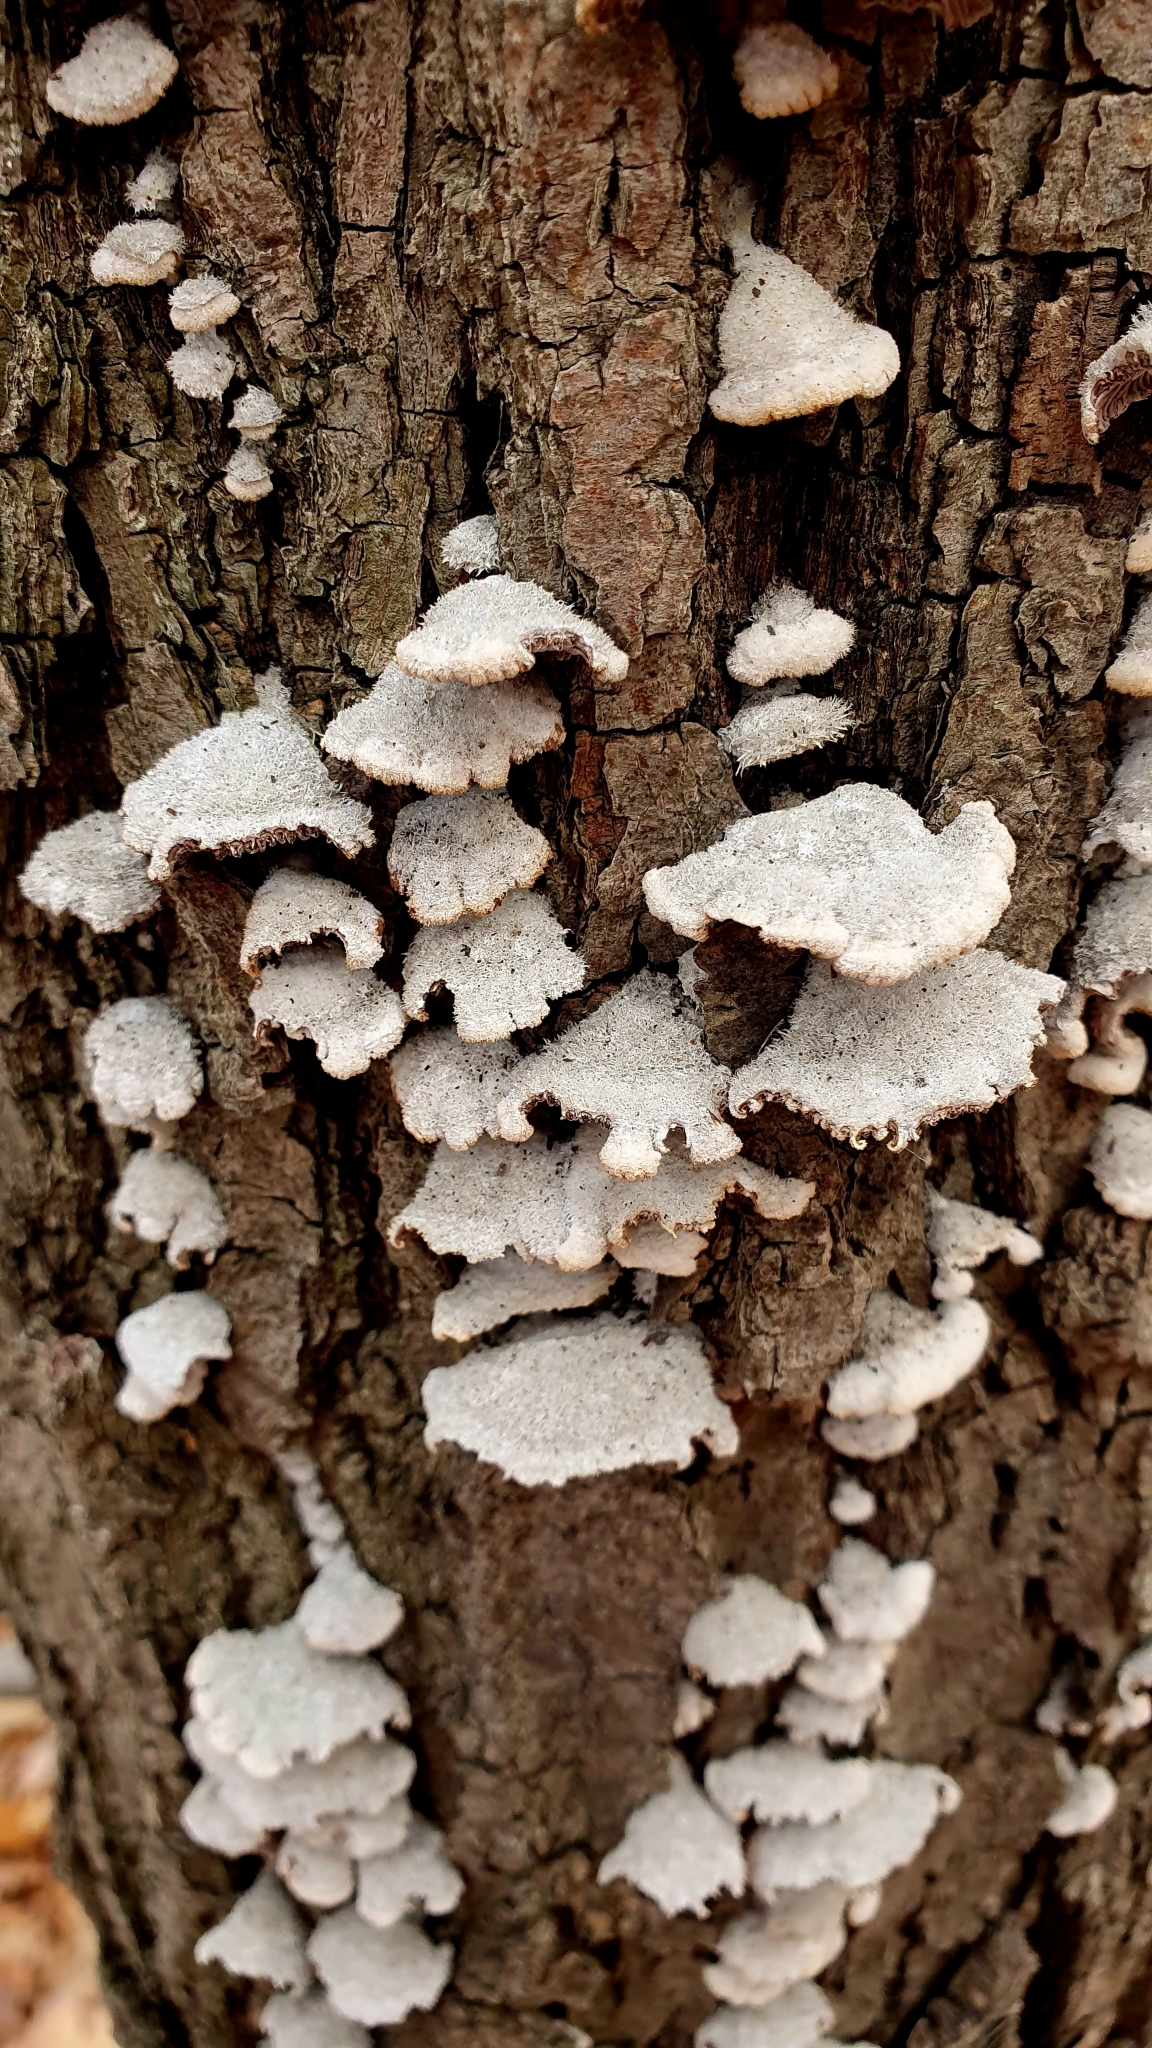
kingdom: Fungi
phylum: Basidiomycota
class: Agaricomycetes
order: Agaricales
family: Schizophyllaceae
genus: Schizophyllum
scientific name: Schizophyllum commune
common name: Common porecrust
